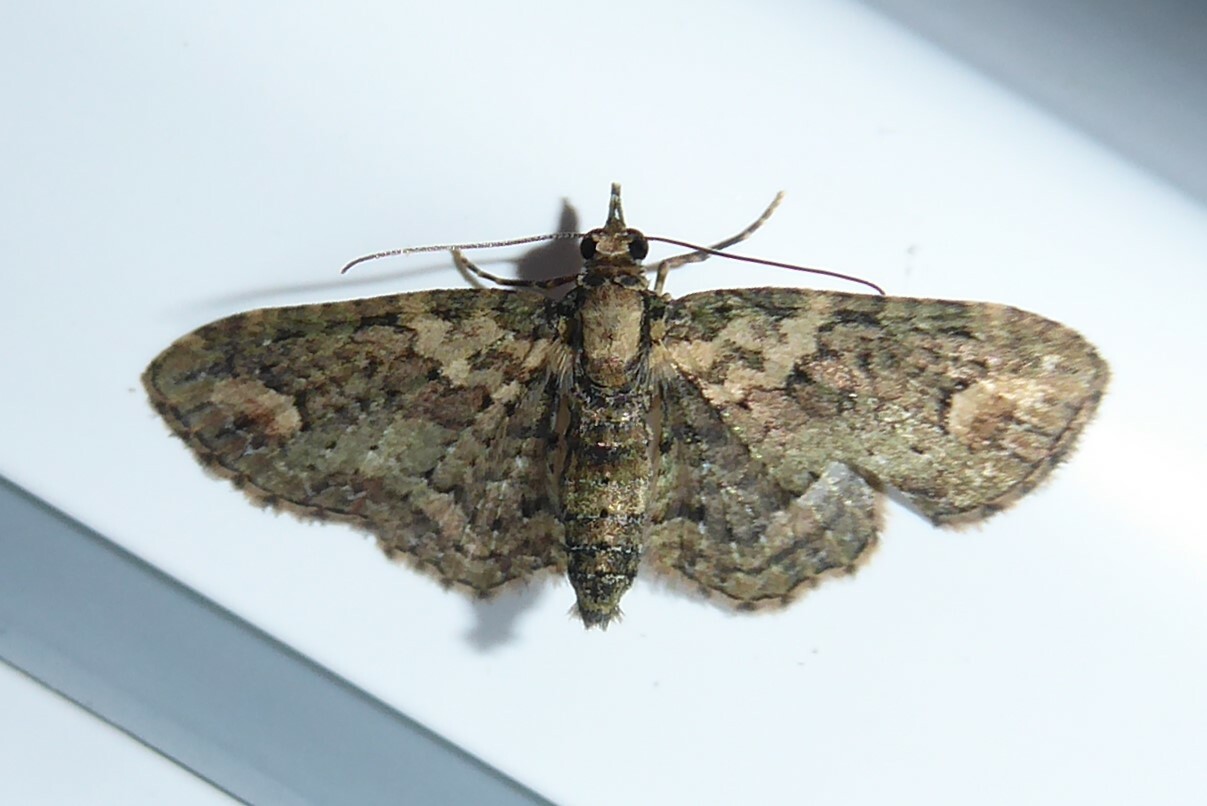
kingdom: Animalia
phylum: Arthropoda
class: Insecta
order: Lepidoptera
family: Geometridae
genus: Pasiphilodes
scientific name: Pasiphilodes testulata
